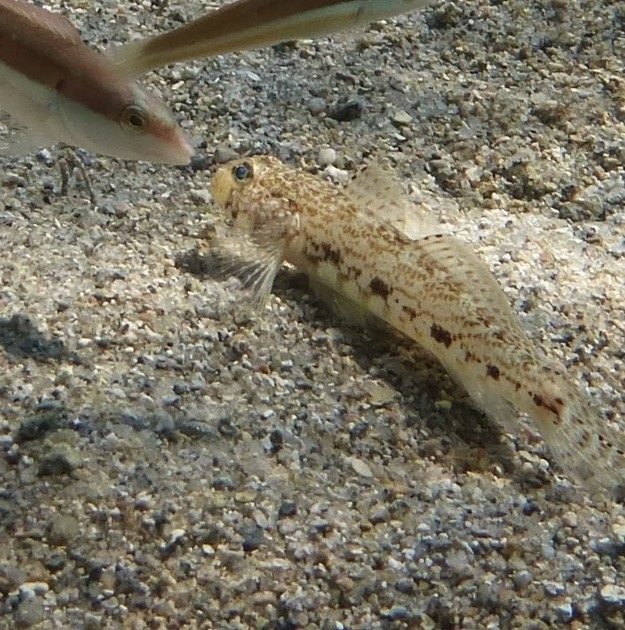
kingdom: Animalia
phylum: Chordata
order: Perciformes
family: Gobiidae
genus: Gobius
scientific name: Gobius geniporus
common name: Slender goby
